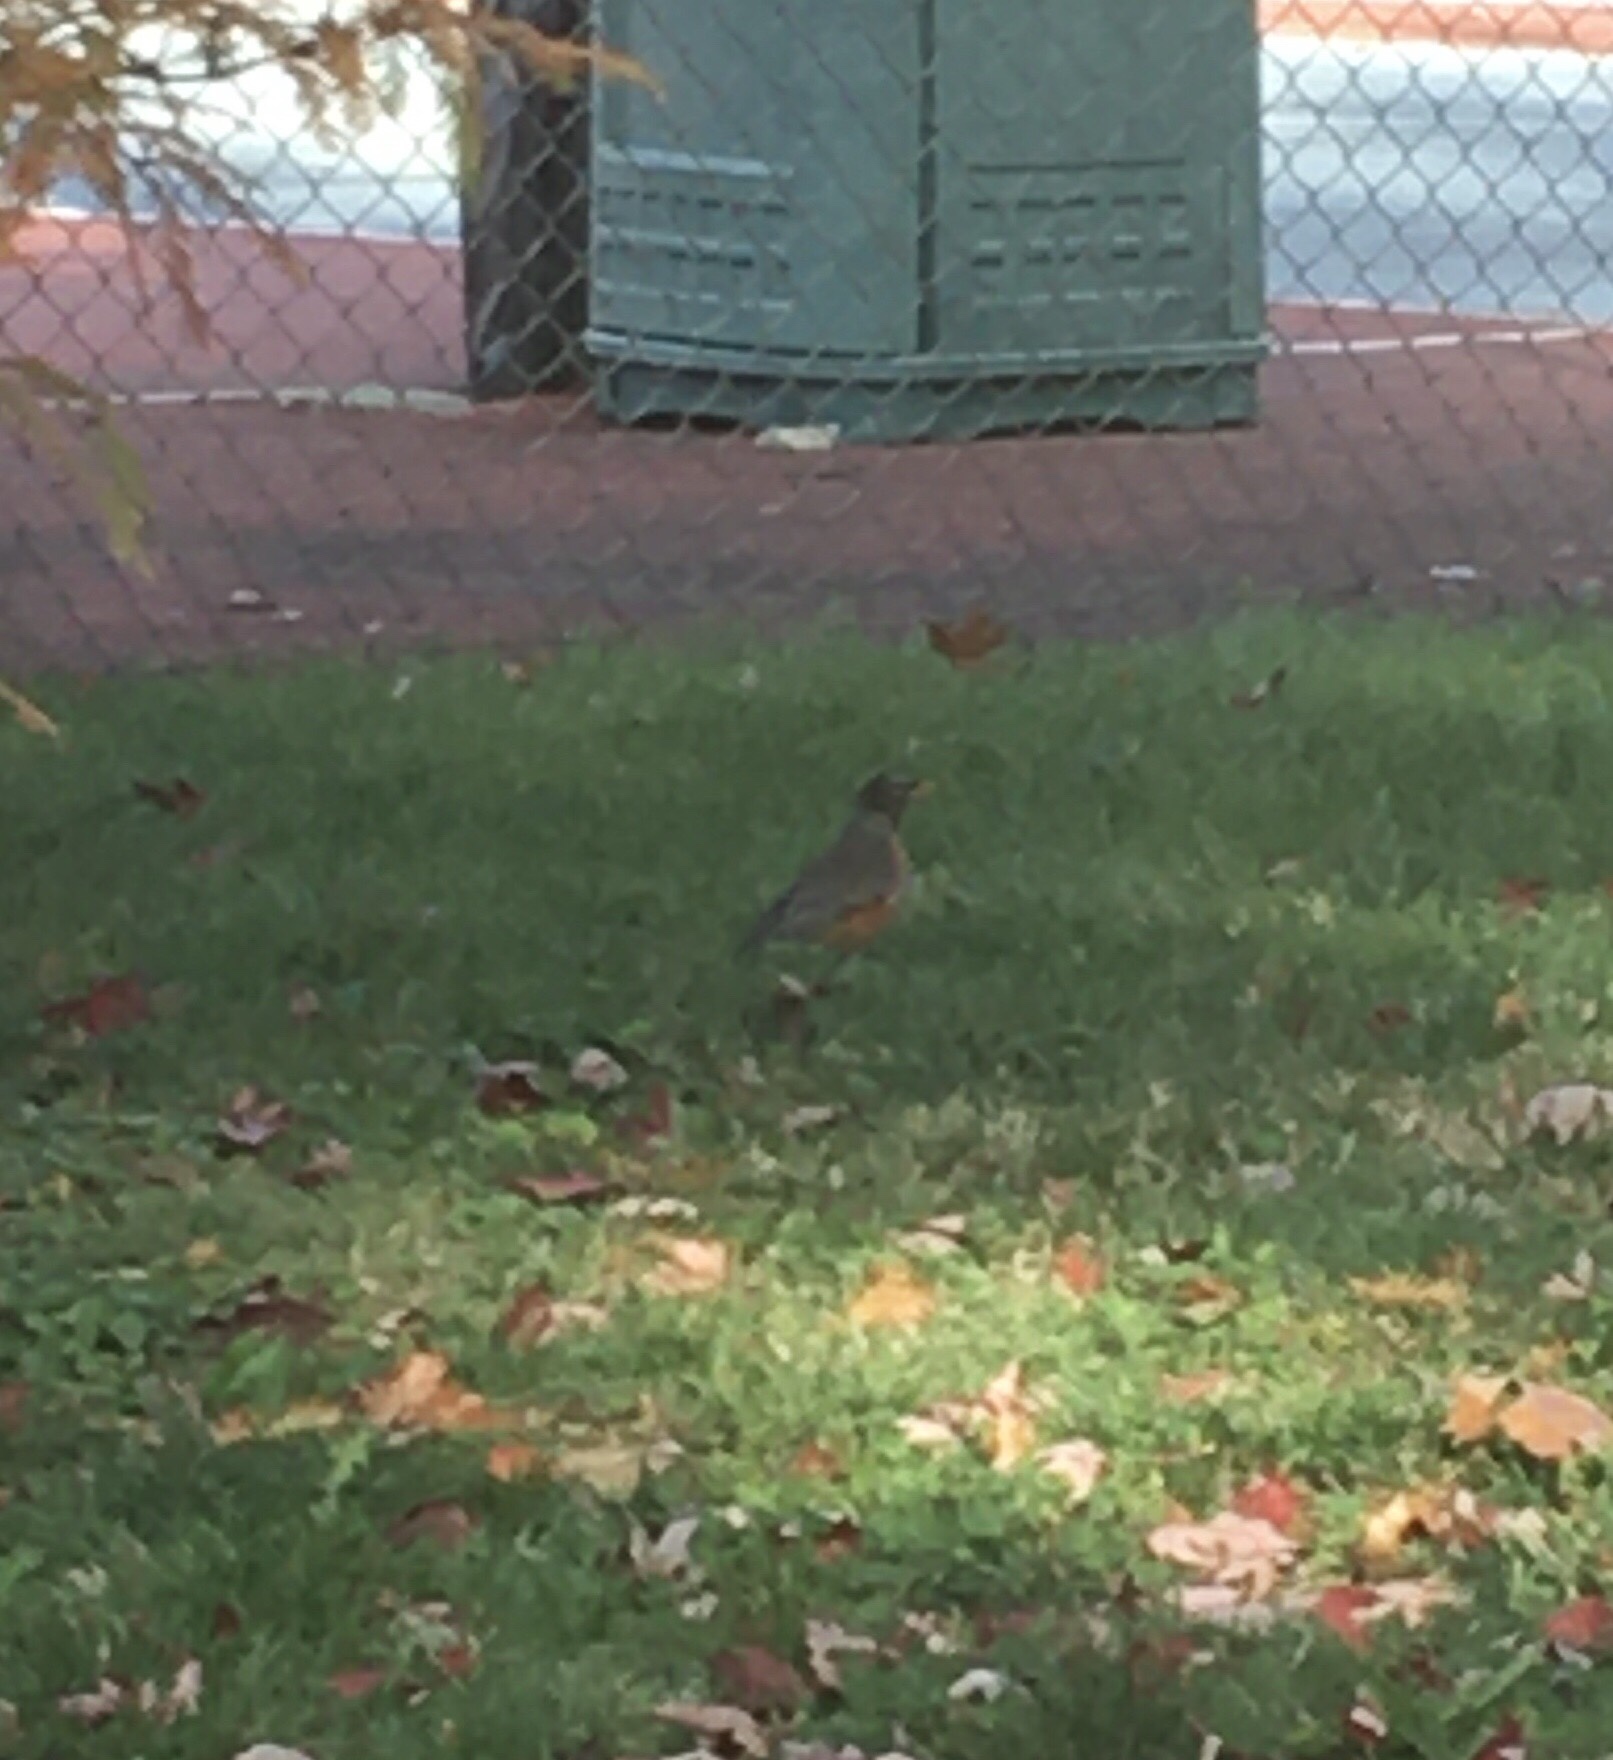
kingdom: Animalia
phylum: Chordata
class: Aves
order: Passeriformes
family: Turdidae
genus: Turdus
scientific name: Turdus migratorius
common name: American robin
